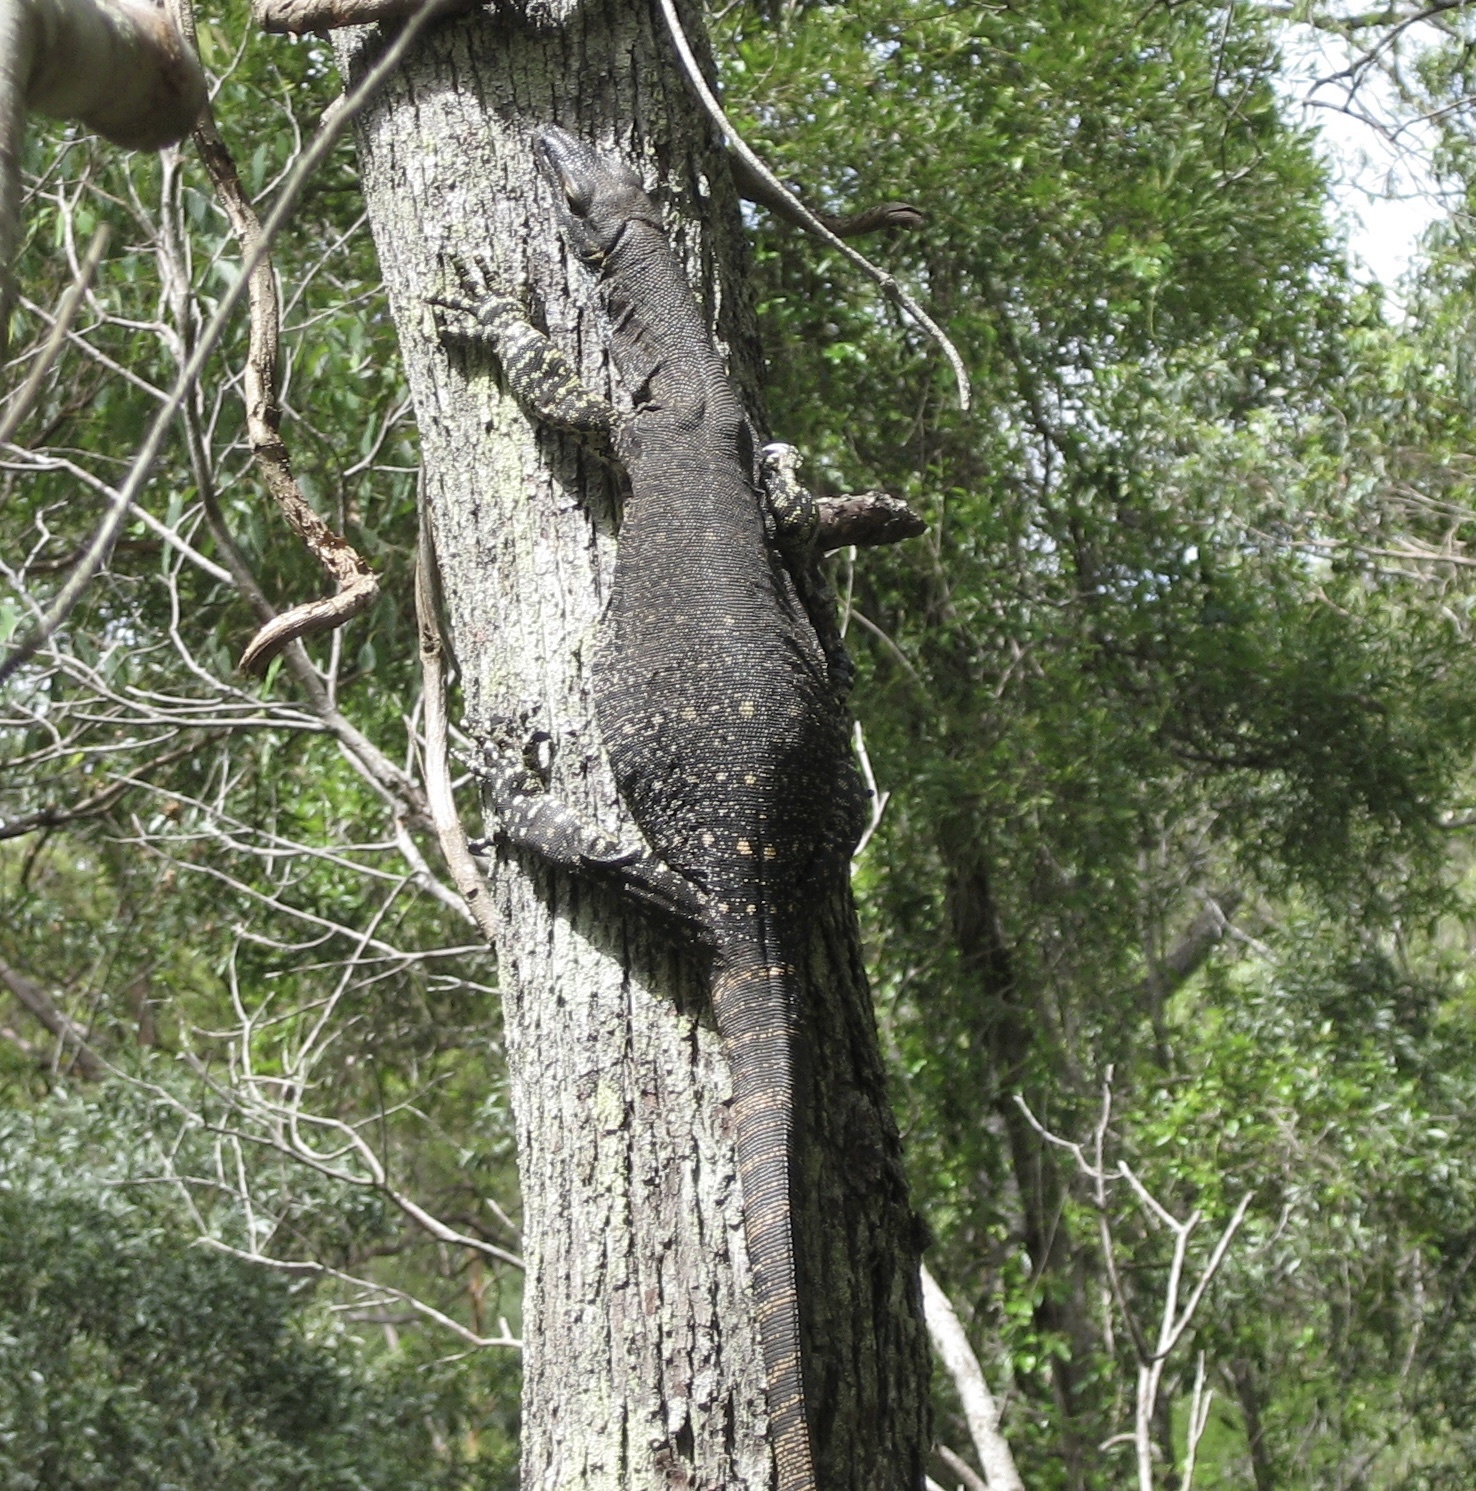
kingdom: Animalia
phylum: Chordata
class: Squamata
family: Varanidae
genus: Varanus
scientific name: Varanus varius
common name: Lace monitor
